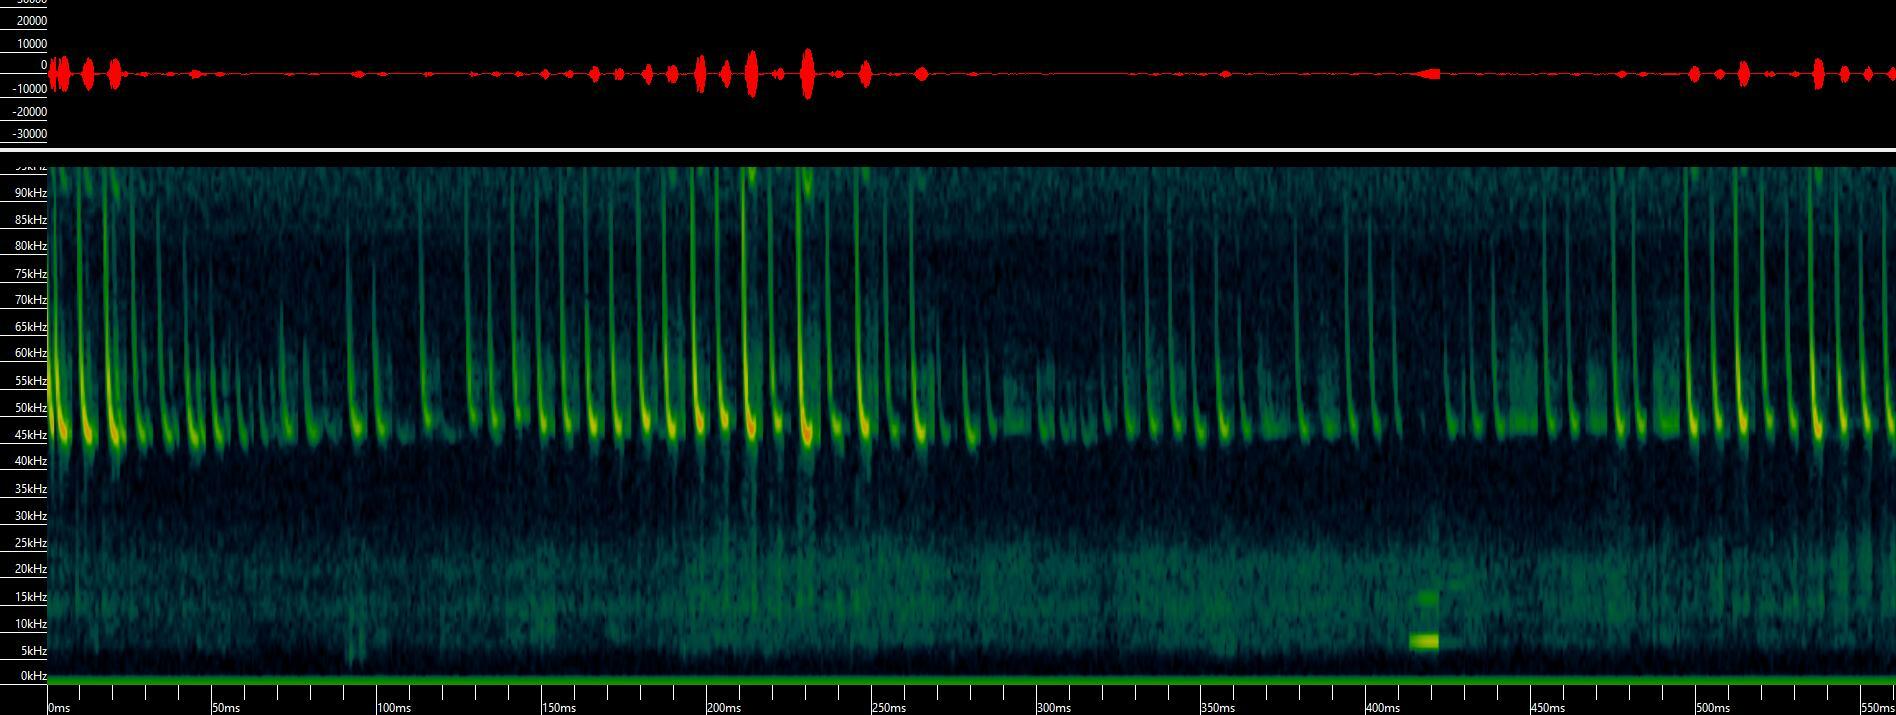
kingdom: Animalia
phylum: Chordata
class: Mammalia
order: Chiroptera
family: Vespertilionidae
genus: Pipistrellus
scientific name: Pipistrellus pipistrellus
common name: Common pipistrelle
